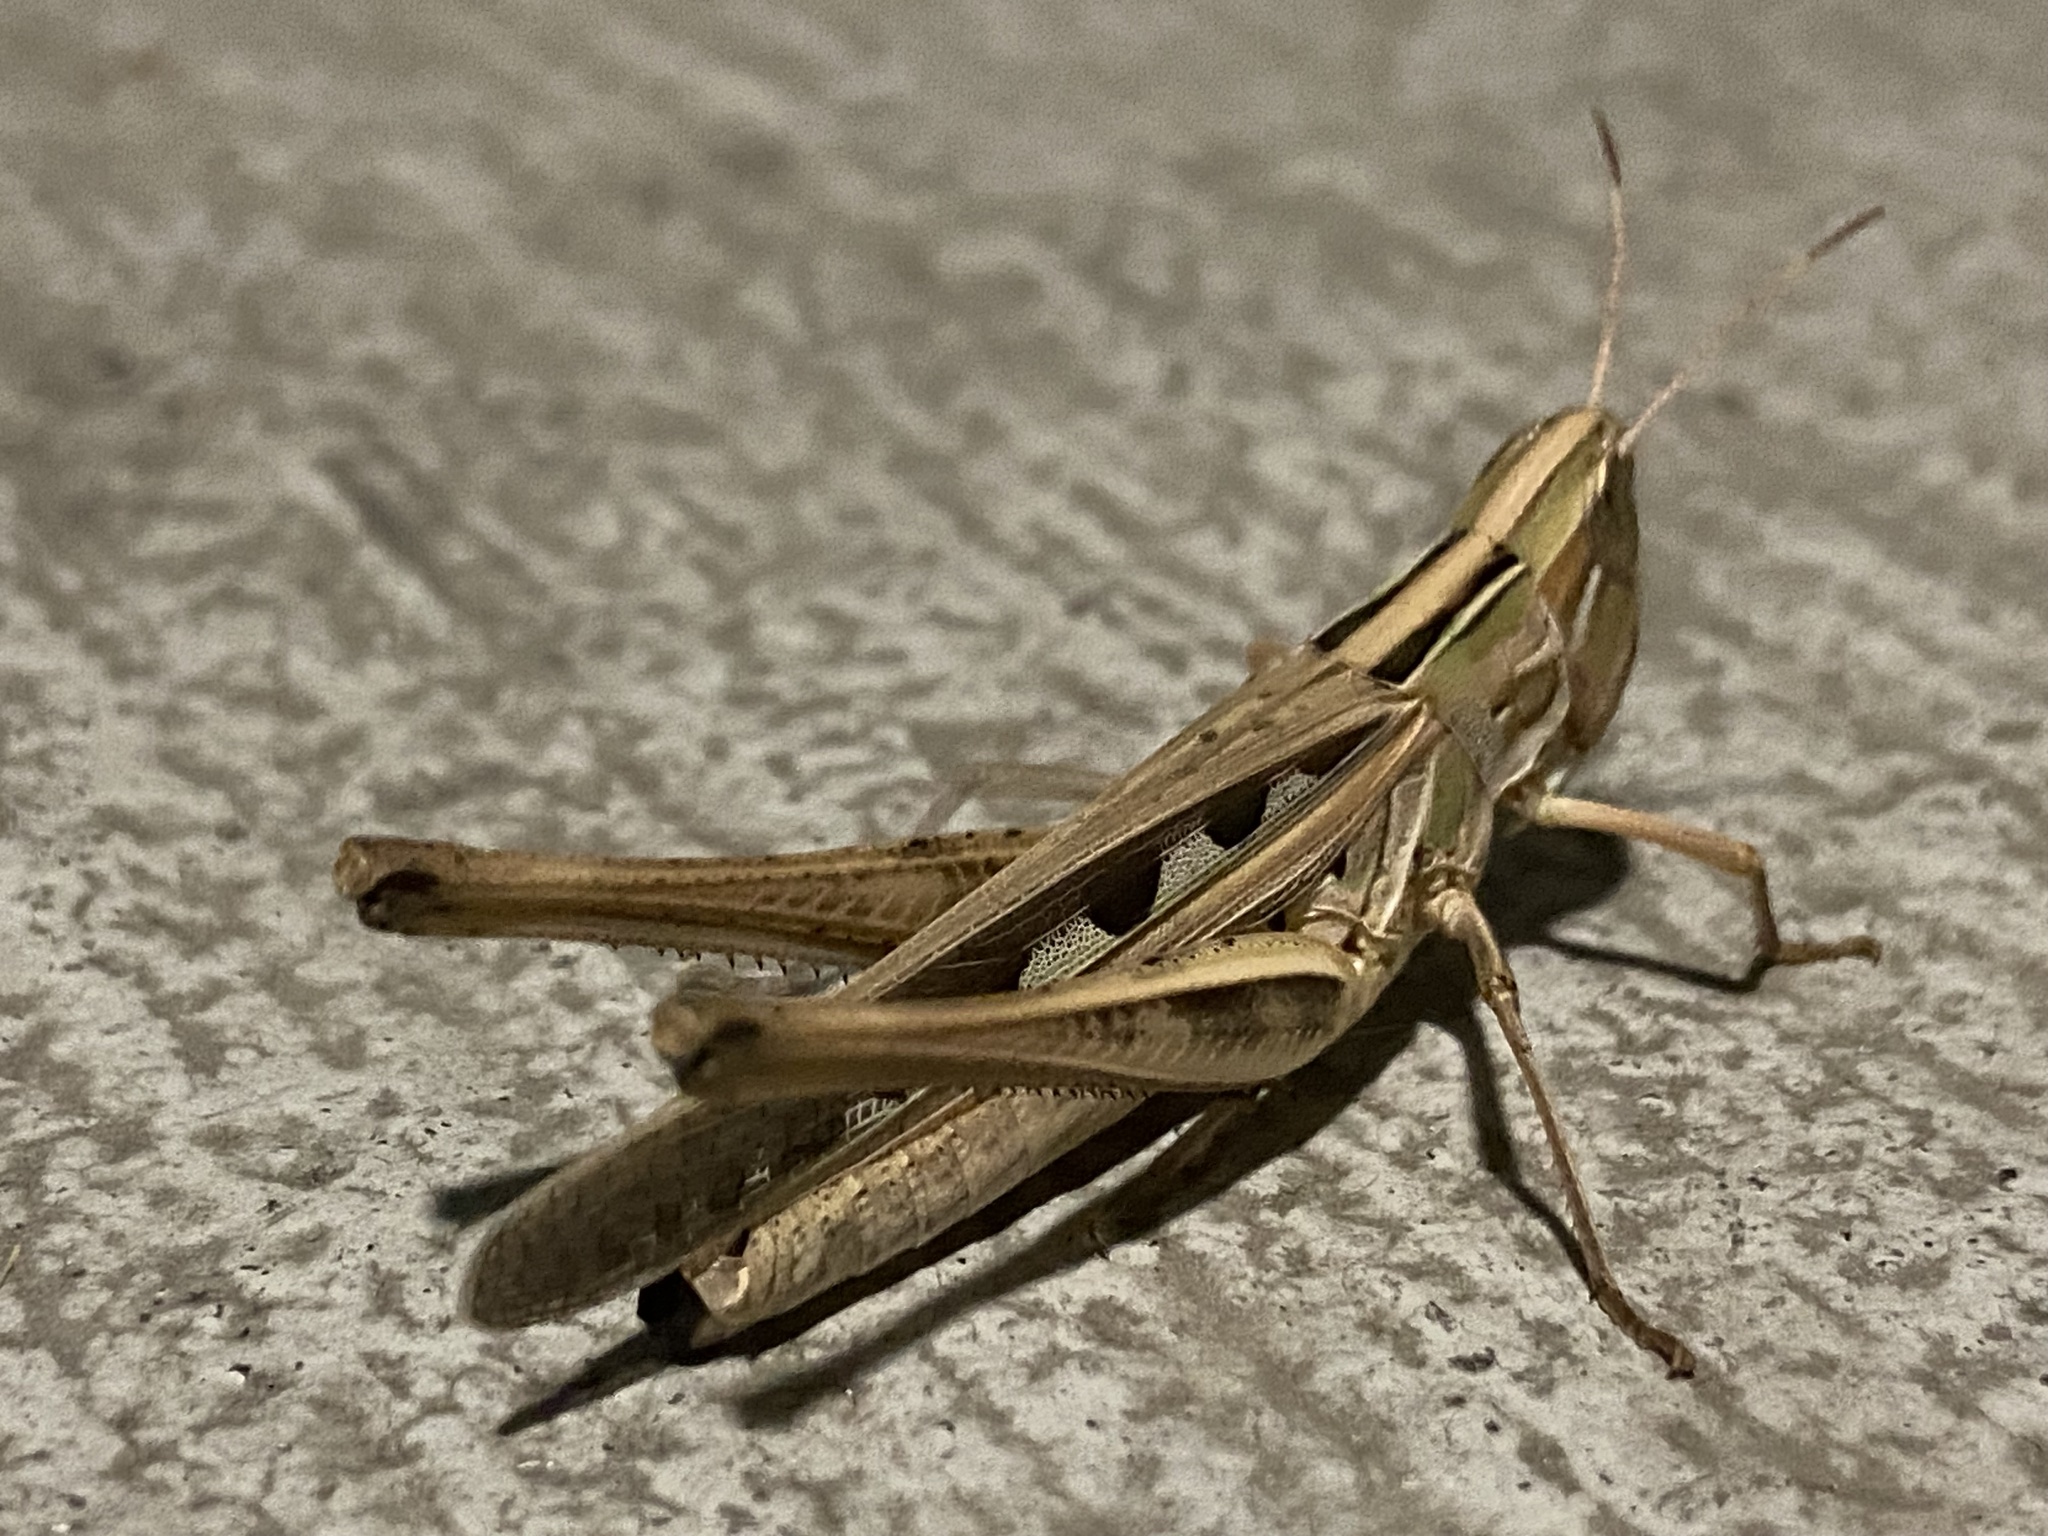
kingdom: Animalia
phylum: Arthropoda
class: Insecta
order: Orthoptera
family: Acrididae
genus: Syrbula
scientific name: Syrbula admirabilis
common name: Handsome grasshopper
